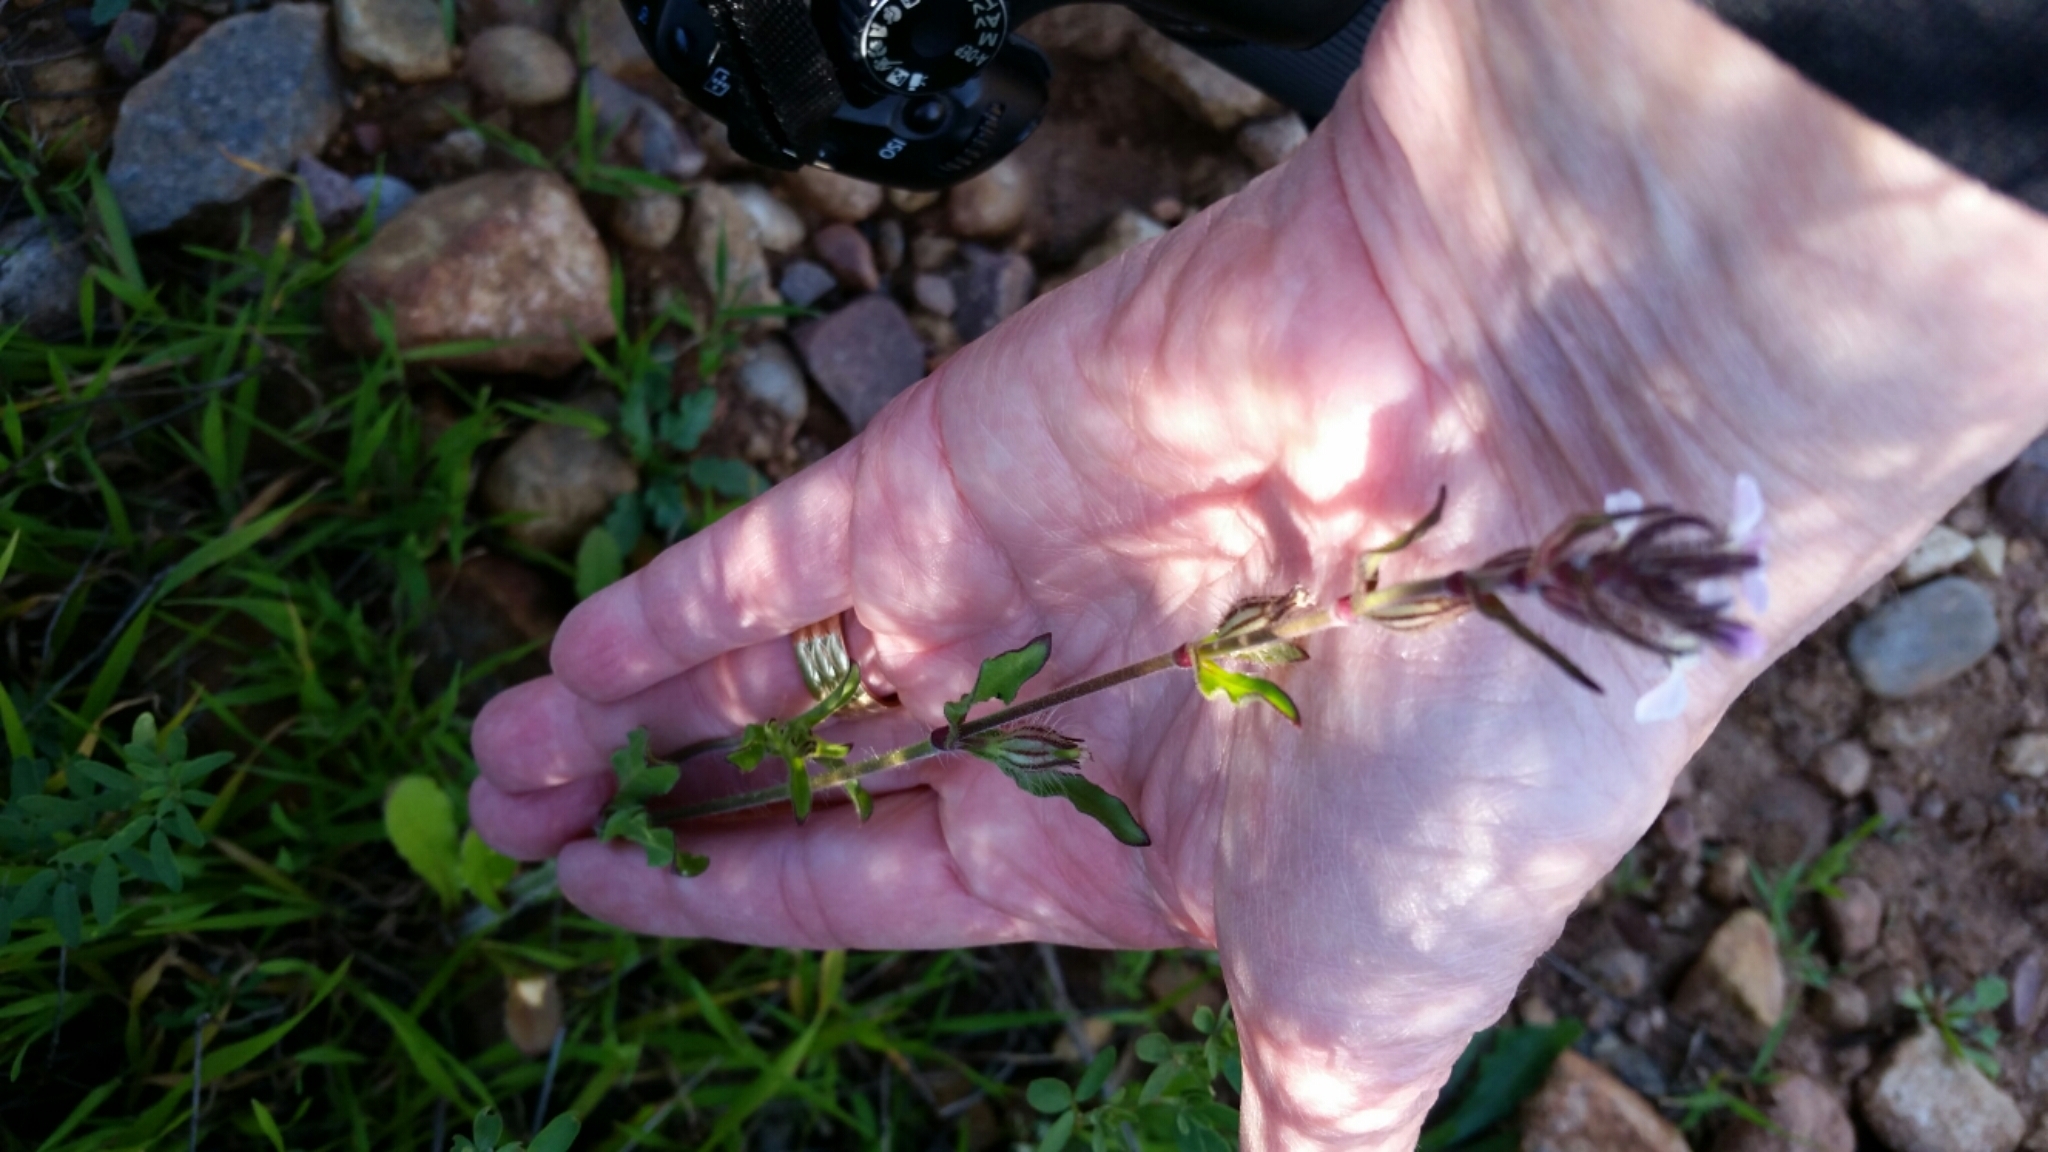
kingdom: Plantae
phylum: Tracheophyta
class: Magnoliopsida
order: Caryophyllales
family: Caryophyllaceae
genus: Silene
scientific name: Silene gallica
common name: Small-flowered catchfly
